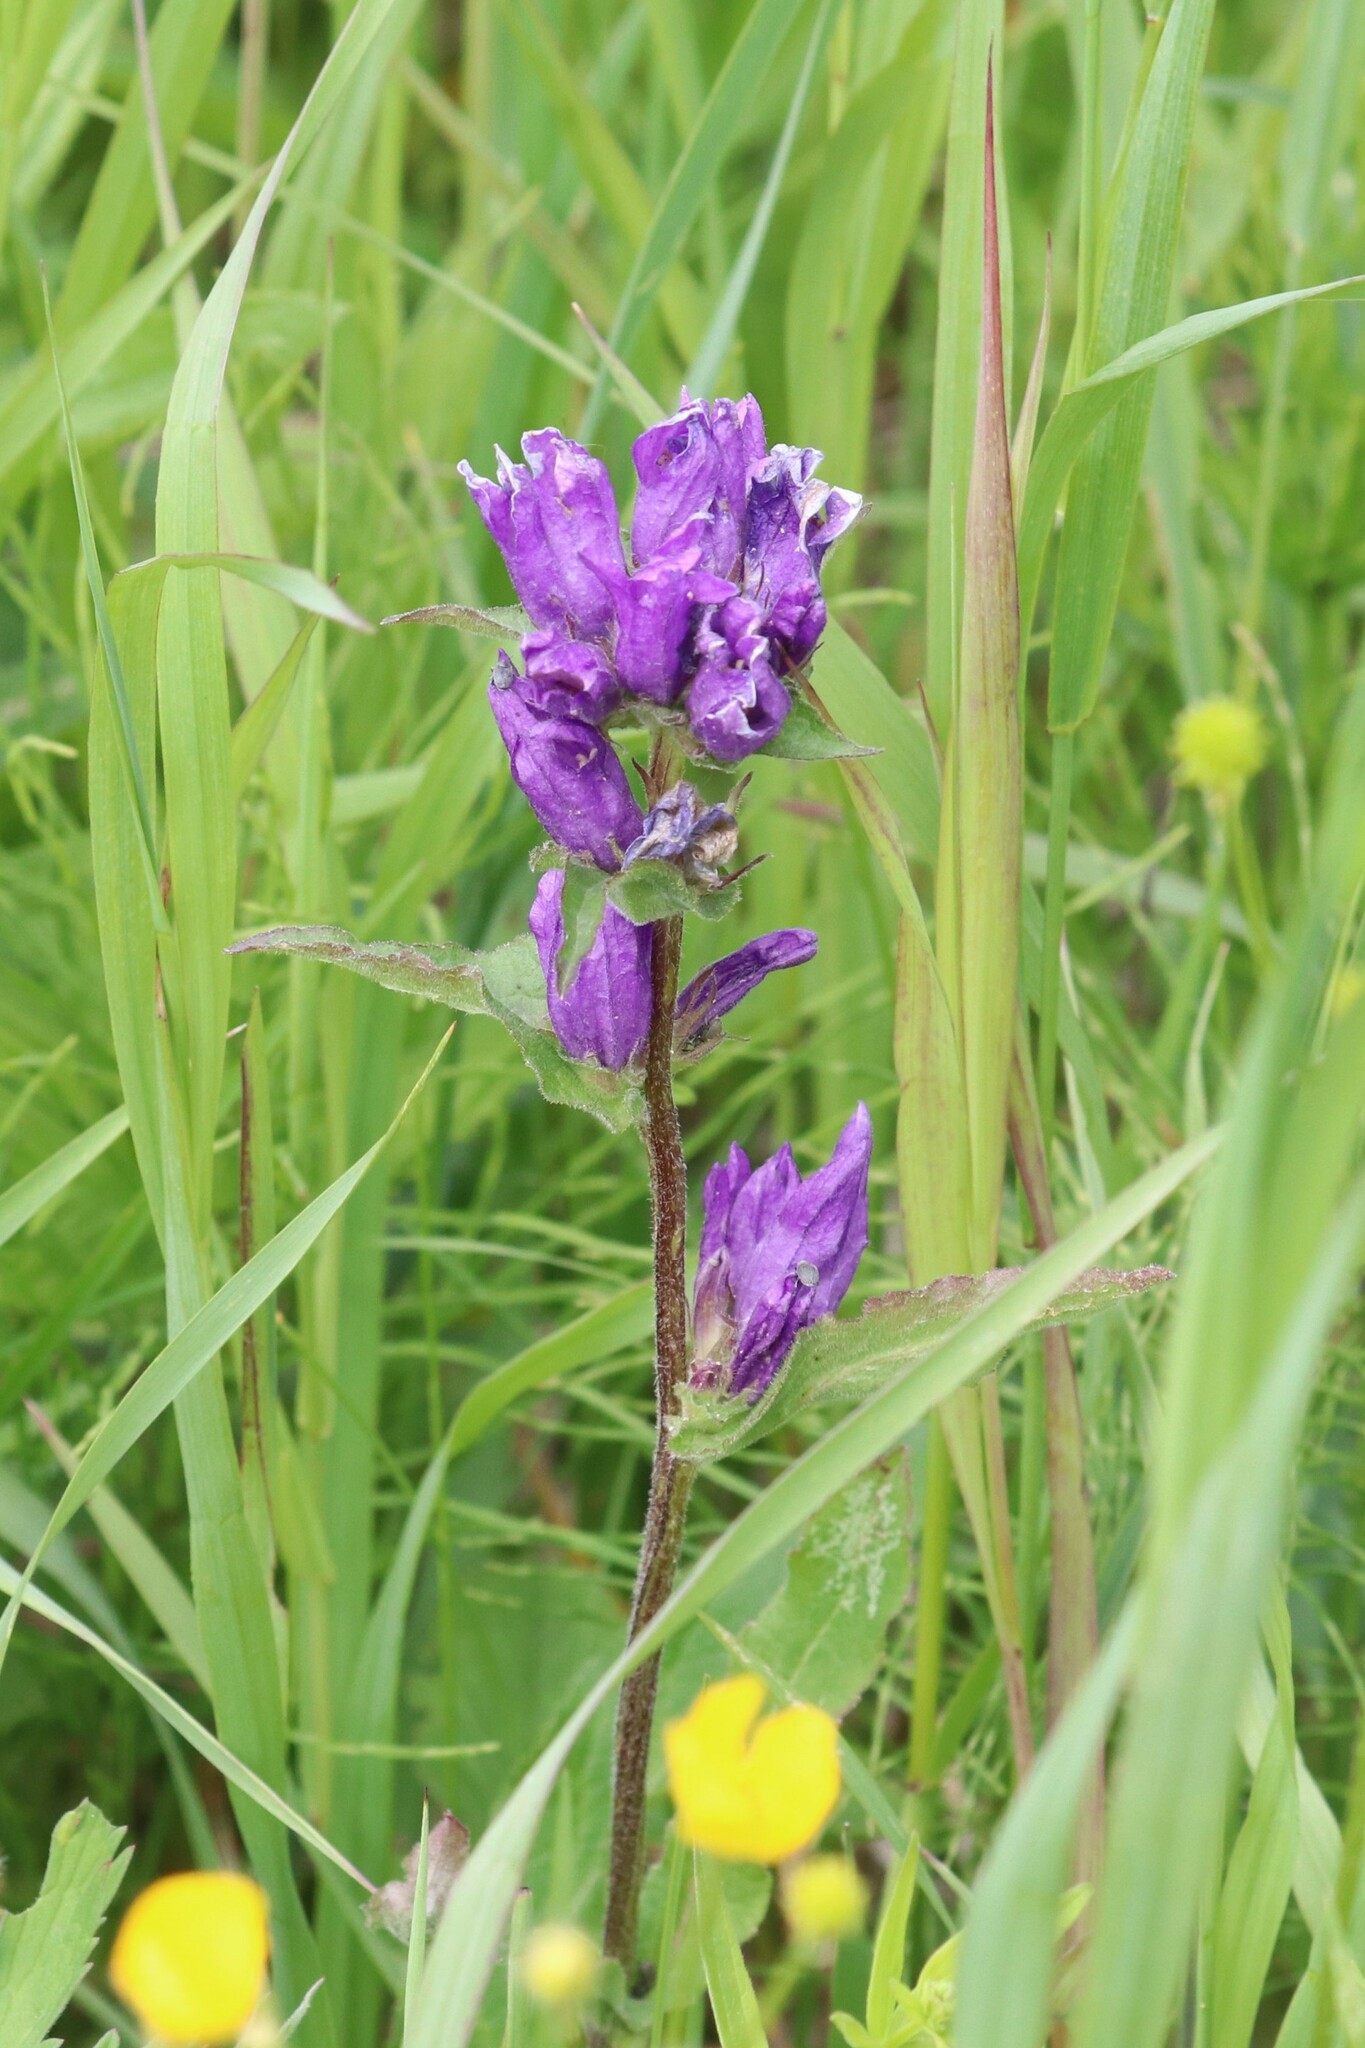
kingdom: Plantae
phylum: Tracheophyta
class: Magnoliopsida
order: Asterales
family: Campanulaceae
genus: Campanula
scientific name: Campanula glomerata
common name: Clustered bellflower
